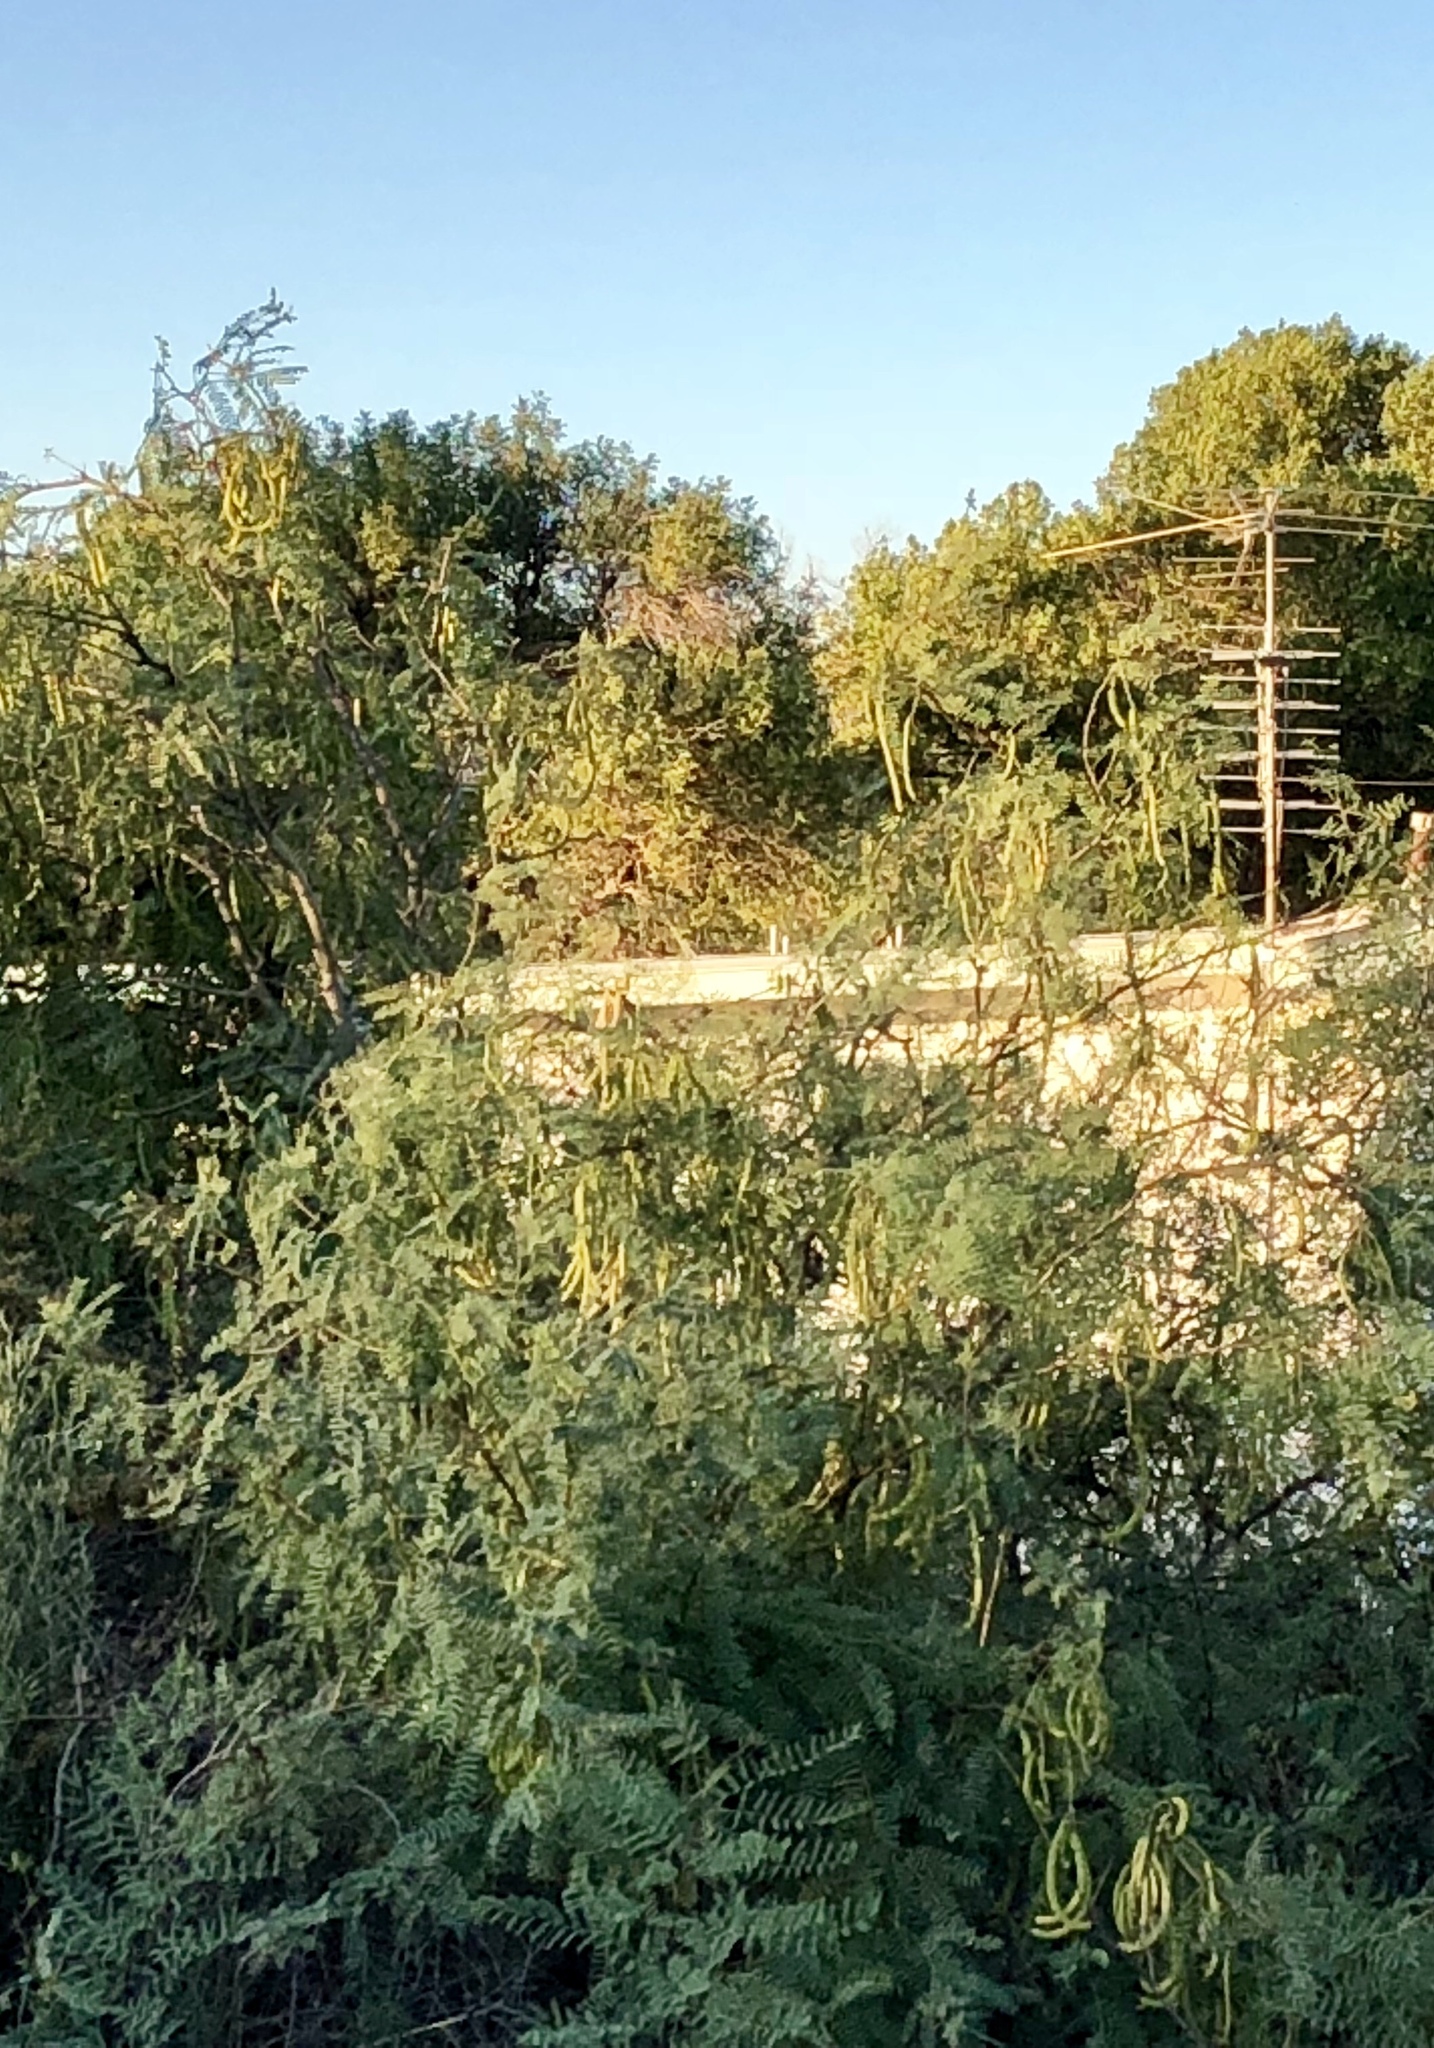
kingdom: Plantae
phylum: Tracheophyta
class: Magnoliopsida
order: Fabales
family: Fabaceae
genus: Prosopis
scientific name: Prosopis glandulosa
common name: Honey mesquite
